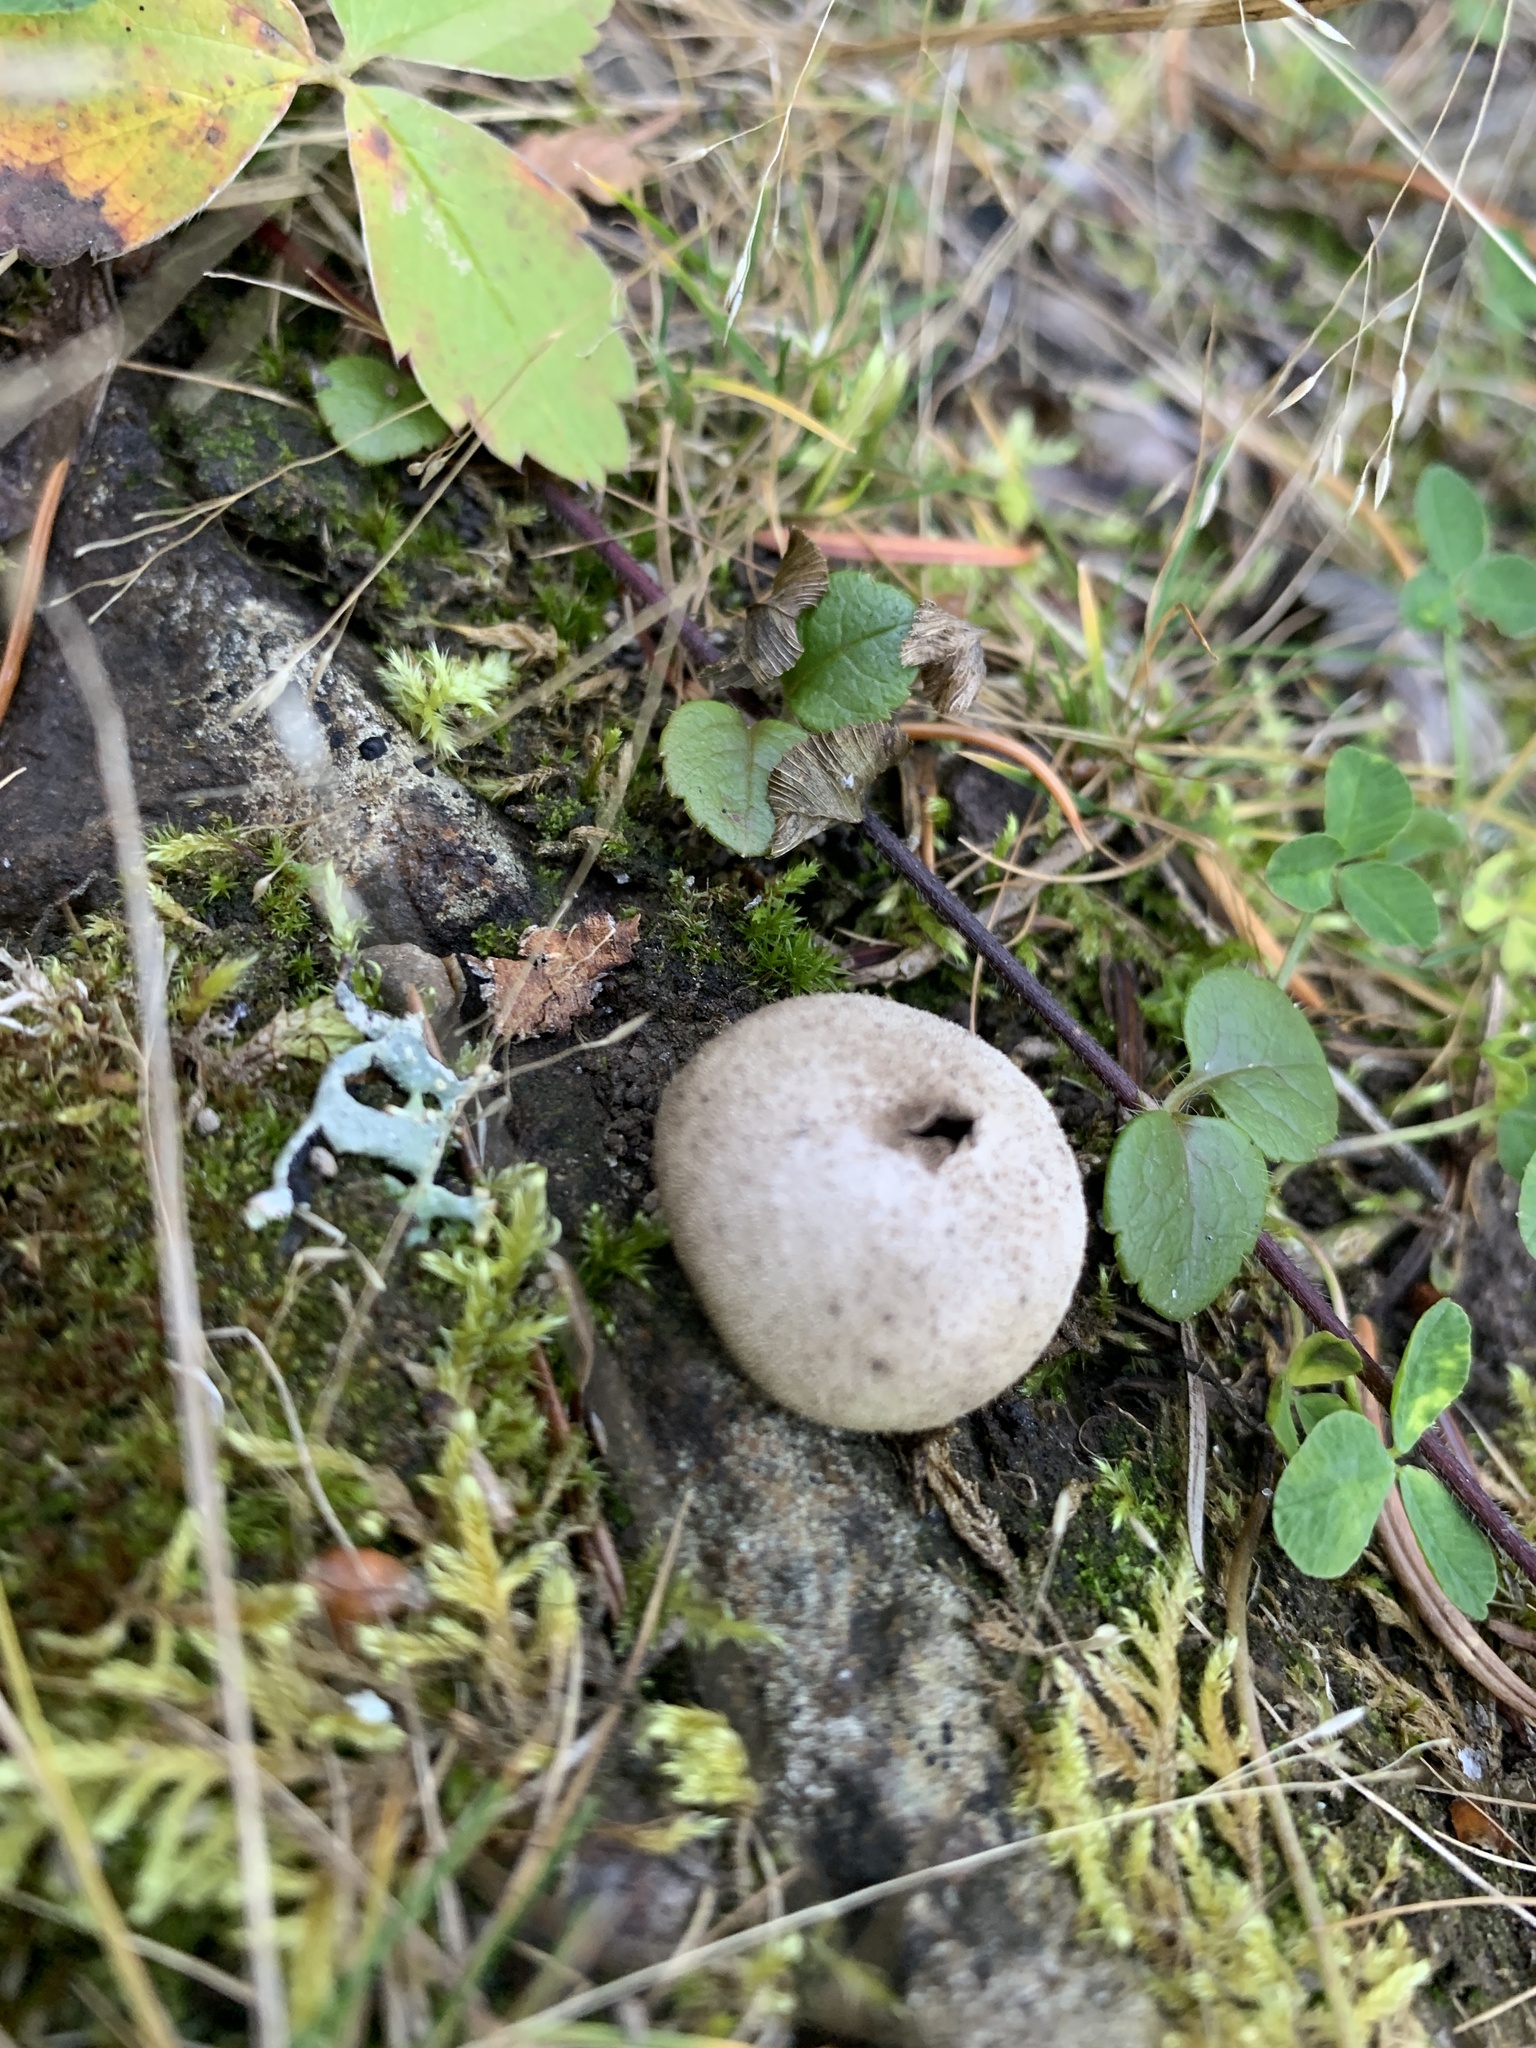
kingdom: Fungi
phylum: Basidiomycota
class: Agaricomycetes
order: Agaricales
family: Lycoperdaceae
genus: Lycoperdon
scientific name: Lycoperdon perlatum
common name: Common puffball
